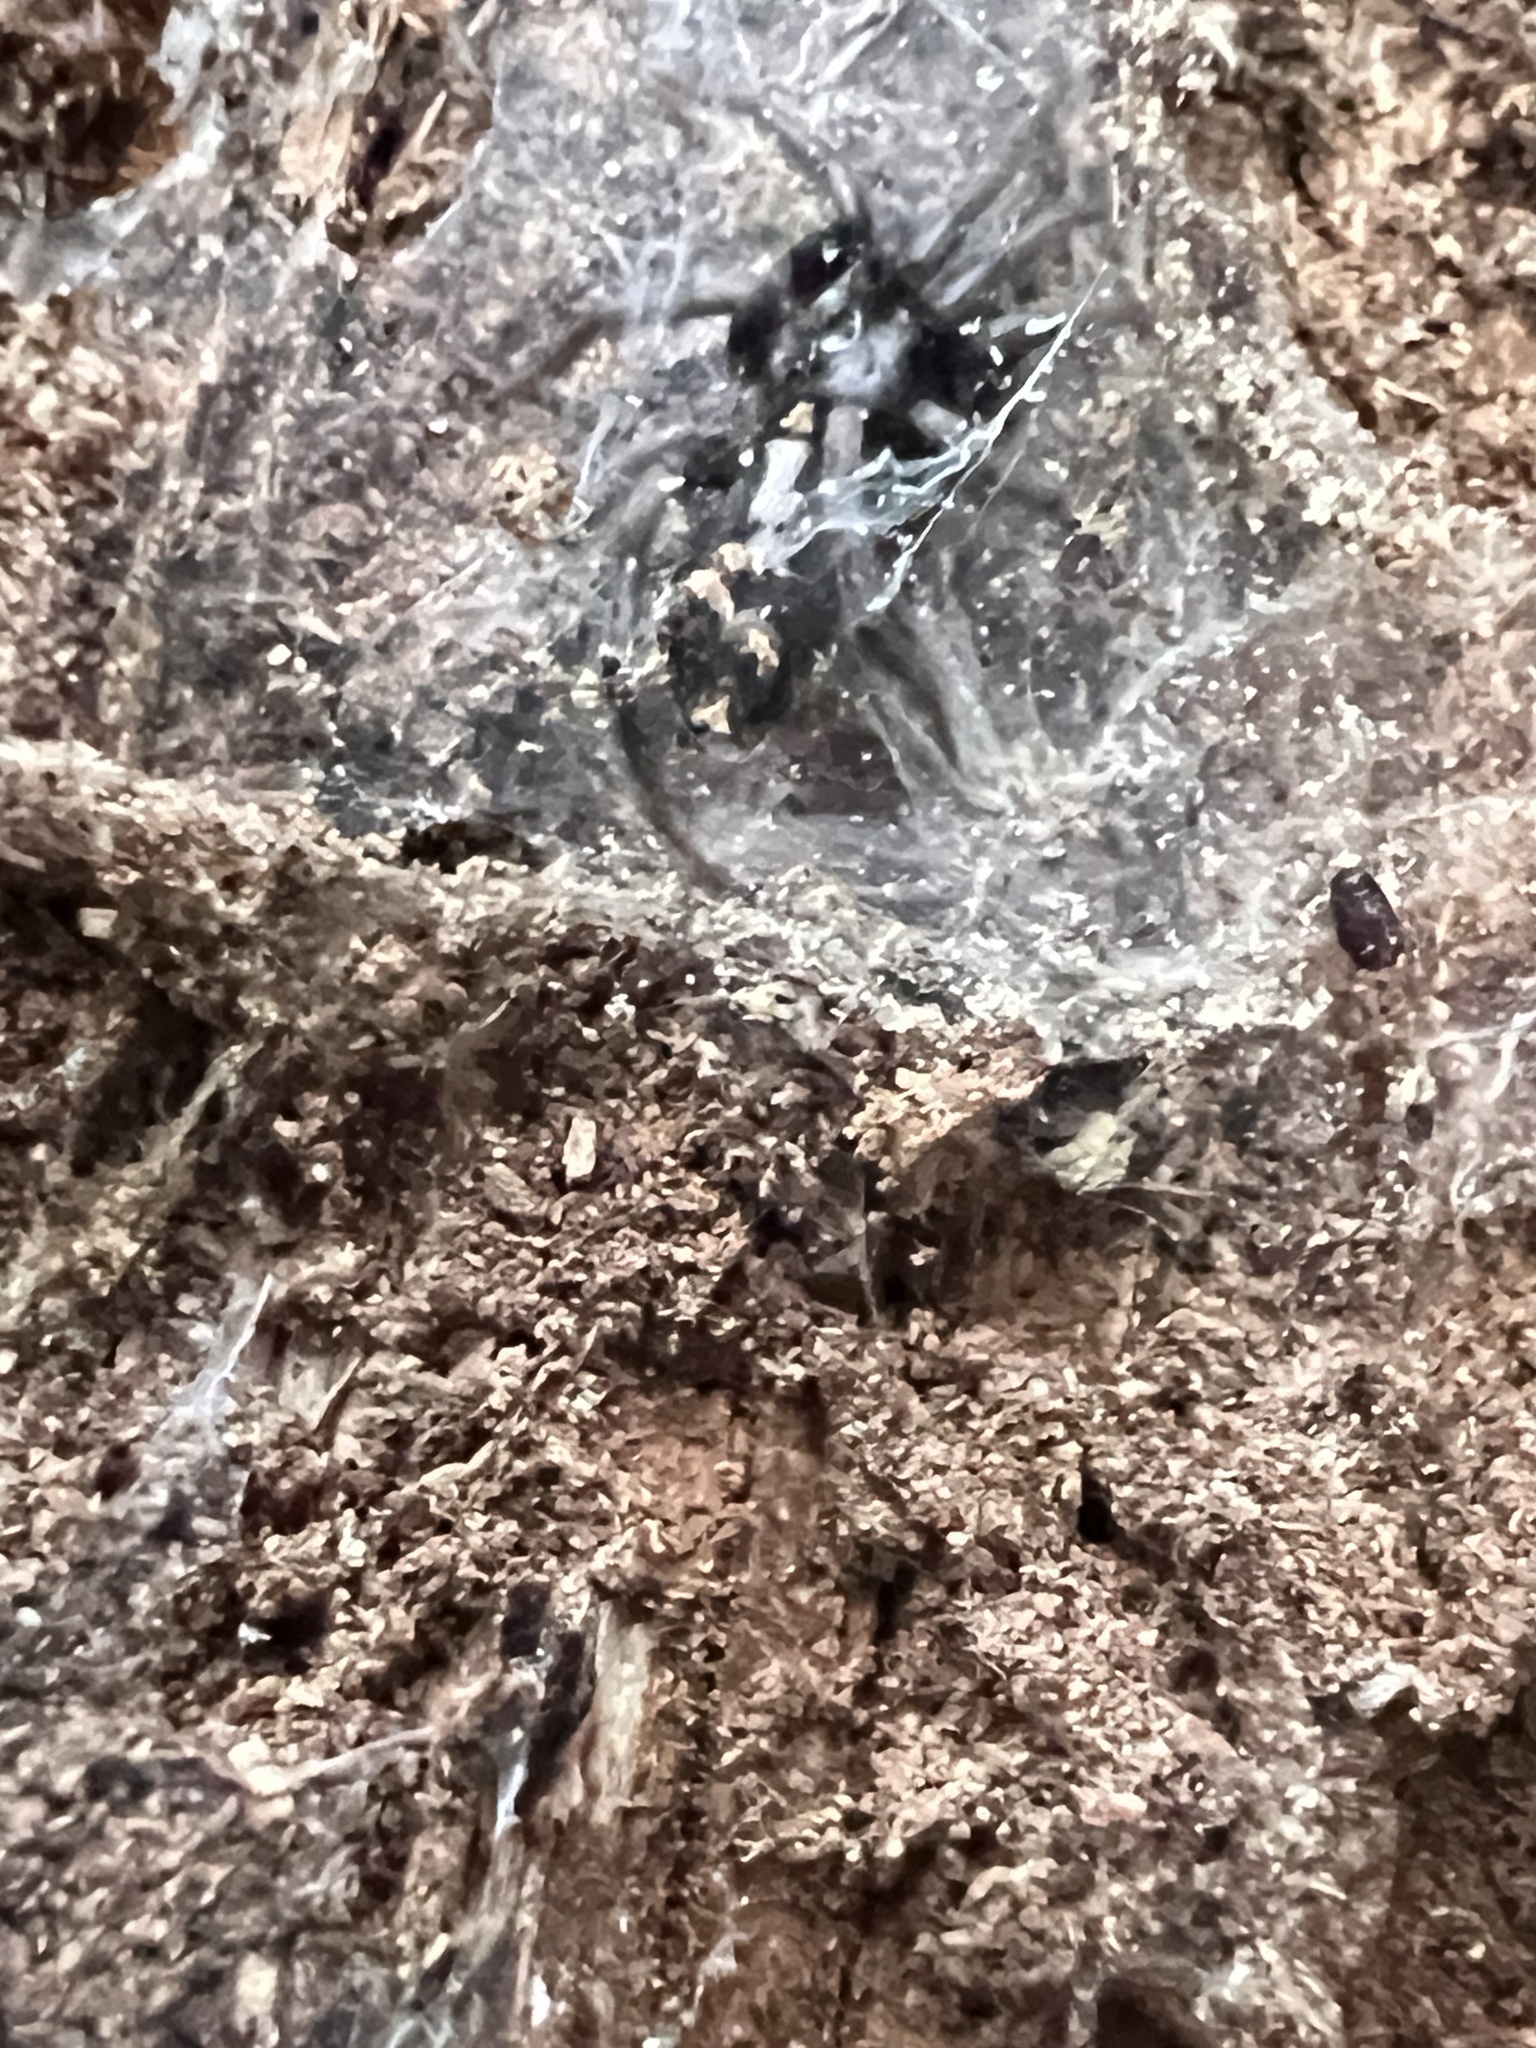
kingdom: Animalia
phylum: Arthropoda
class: Arachnida
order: Araneae
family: Gnaphosidae
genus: Herpyllus
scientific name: Herpyllus ecclesiasticus
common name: Eastern parson spider
